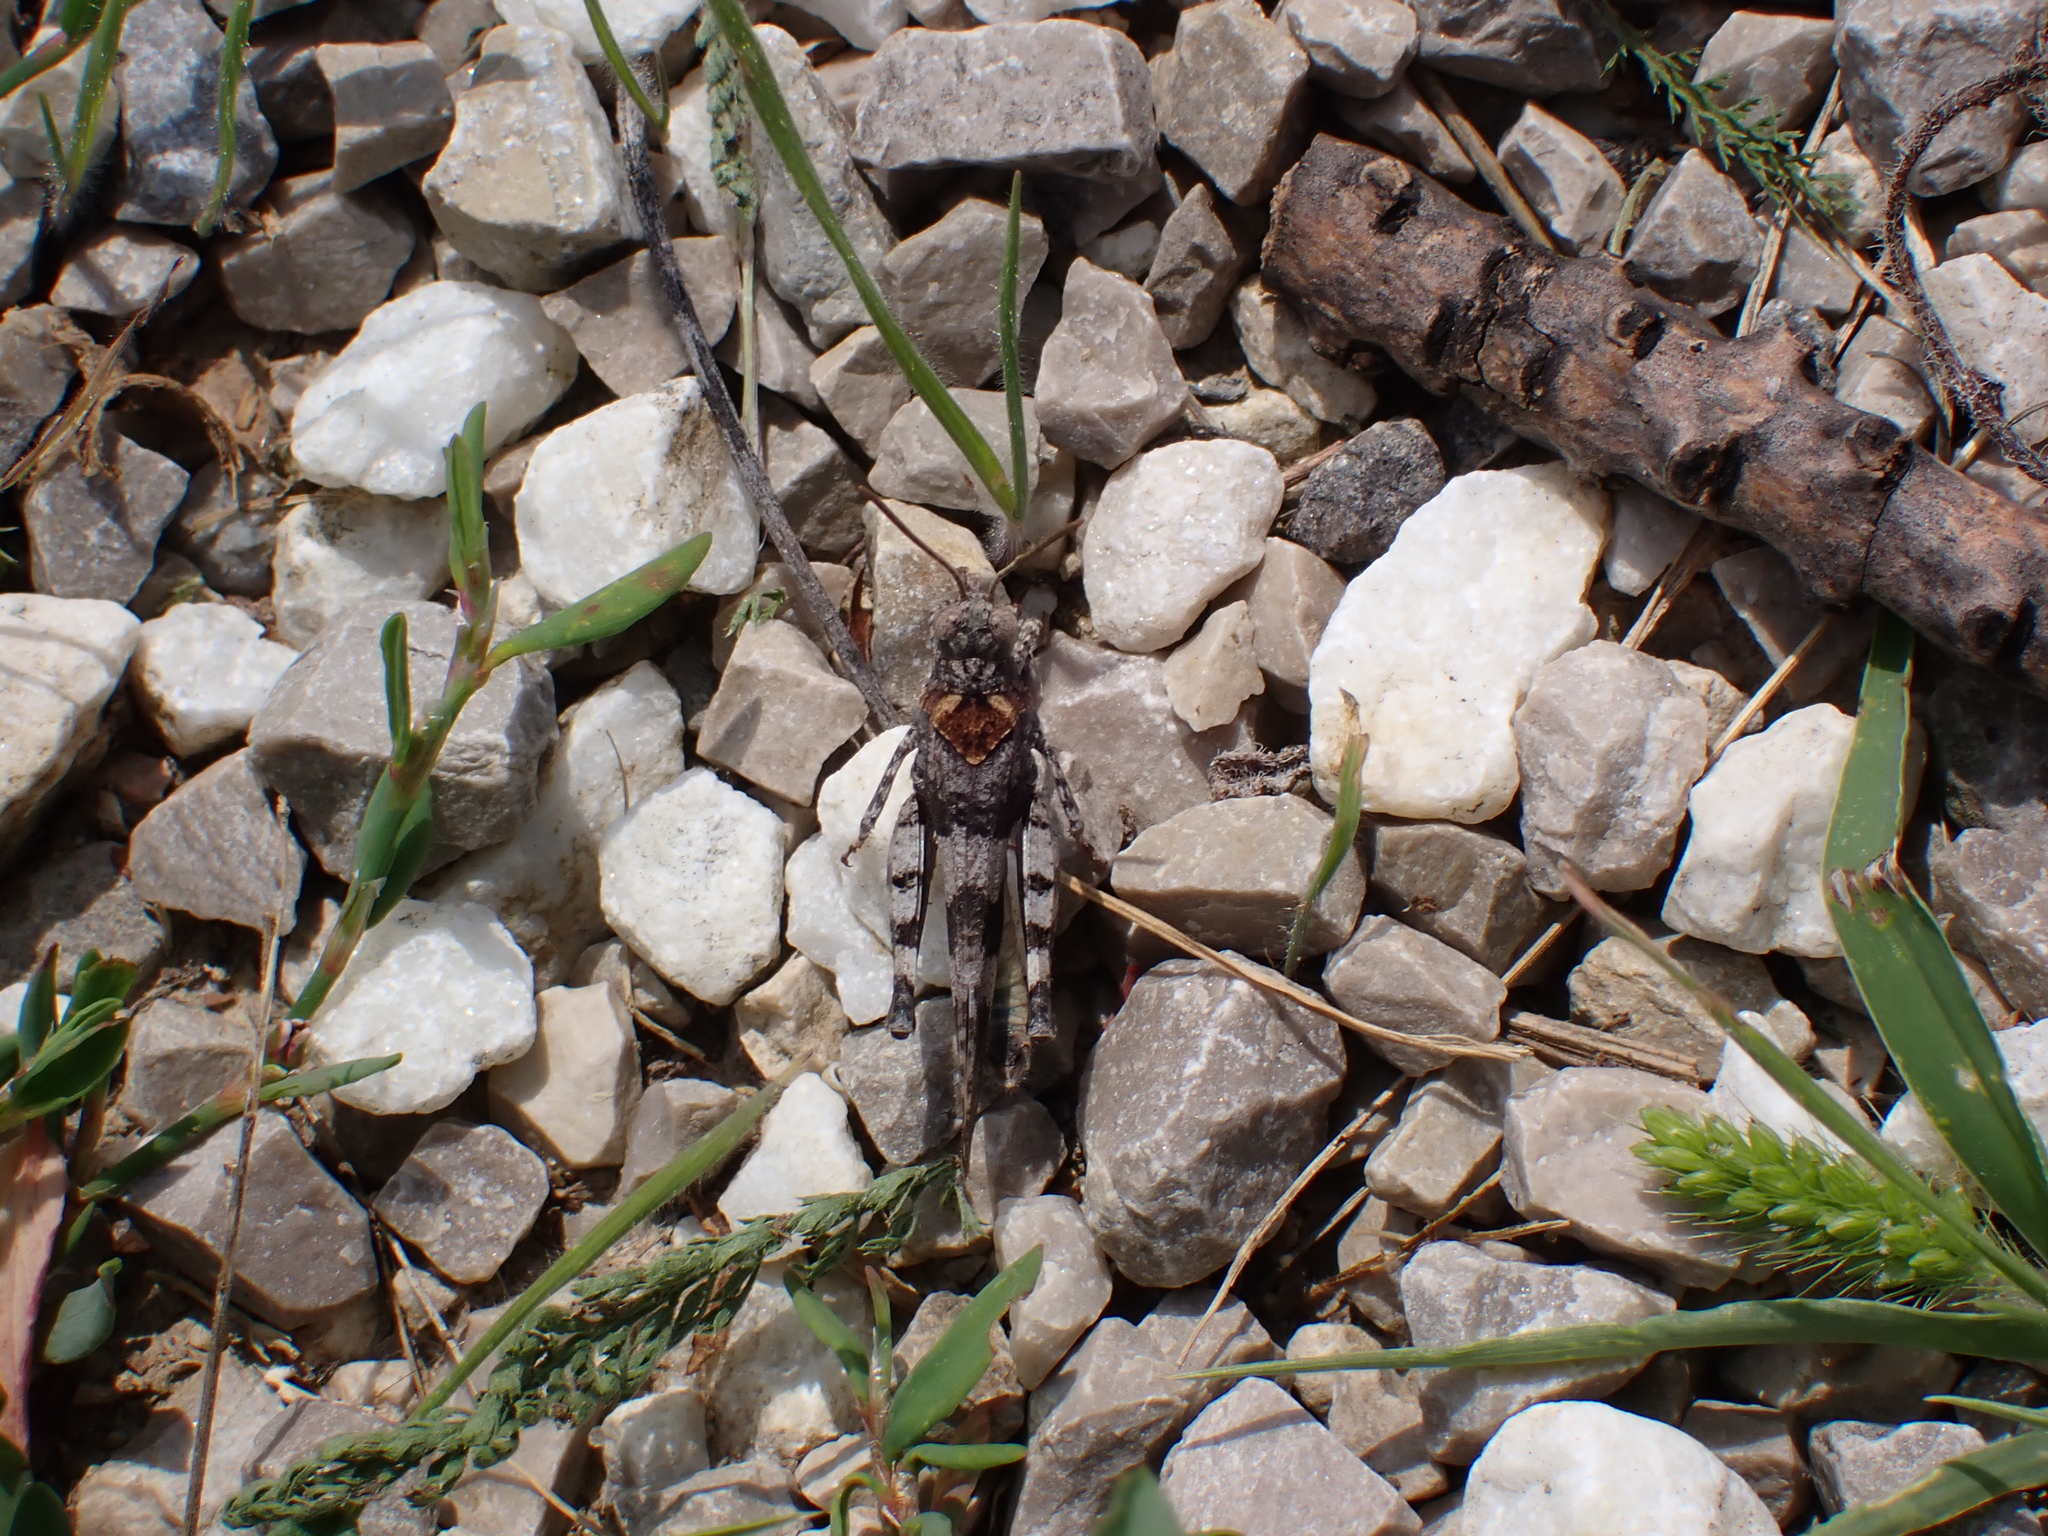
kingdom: Animalia
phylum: Arthropoda
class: Insecta
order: Orthoptera
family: Acrididae
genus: Oedipoda
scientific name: Oedipoda caerulescens
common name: Blue-winged grasshopper
